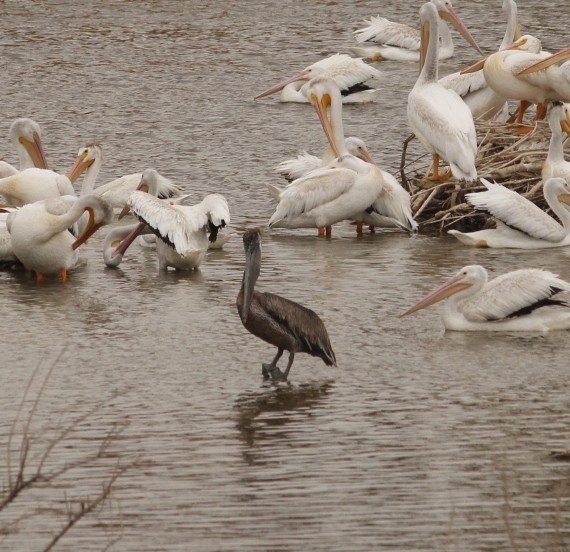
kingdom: Animalia
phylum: Chordata
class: Aves
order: Pelecaniformes
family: Pelecanidae
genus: Pelecanus
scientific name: Pelecanus occidentalis
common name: Brown pelican
